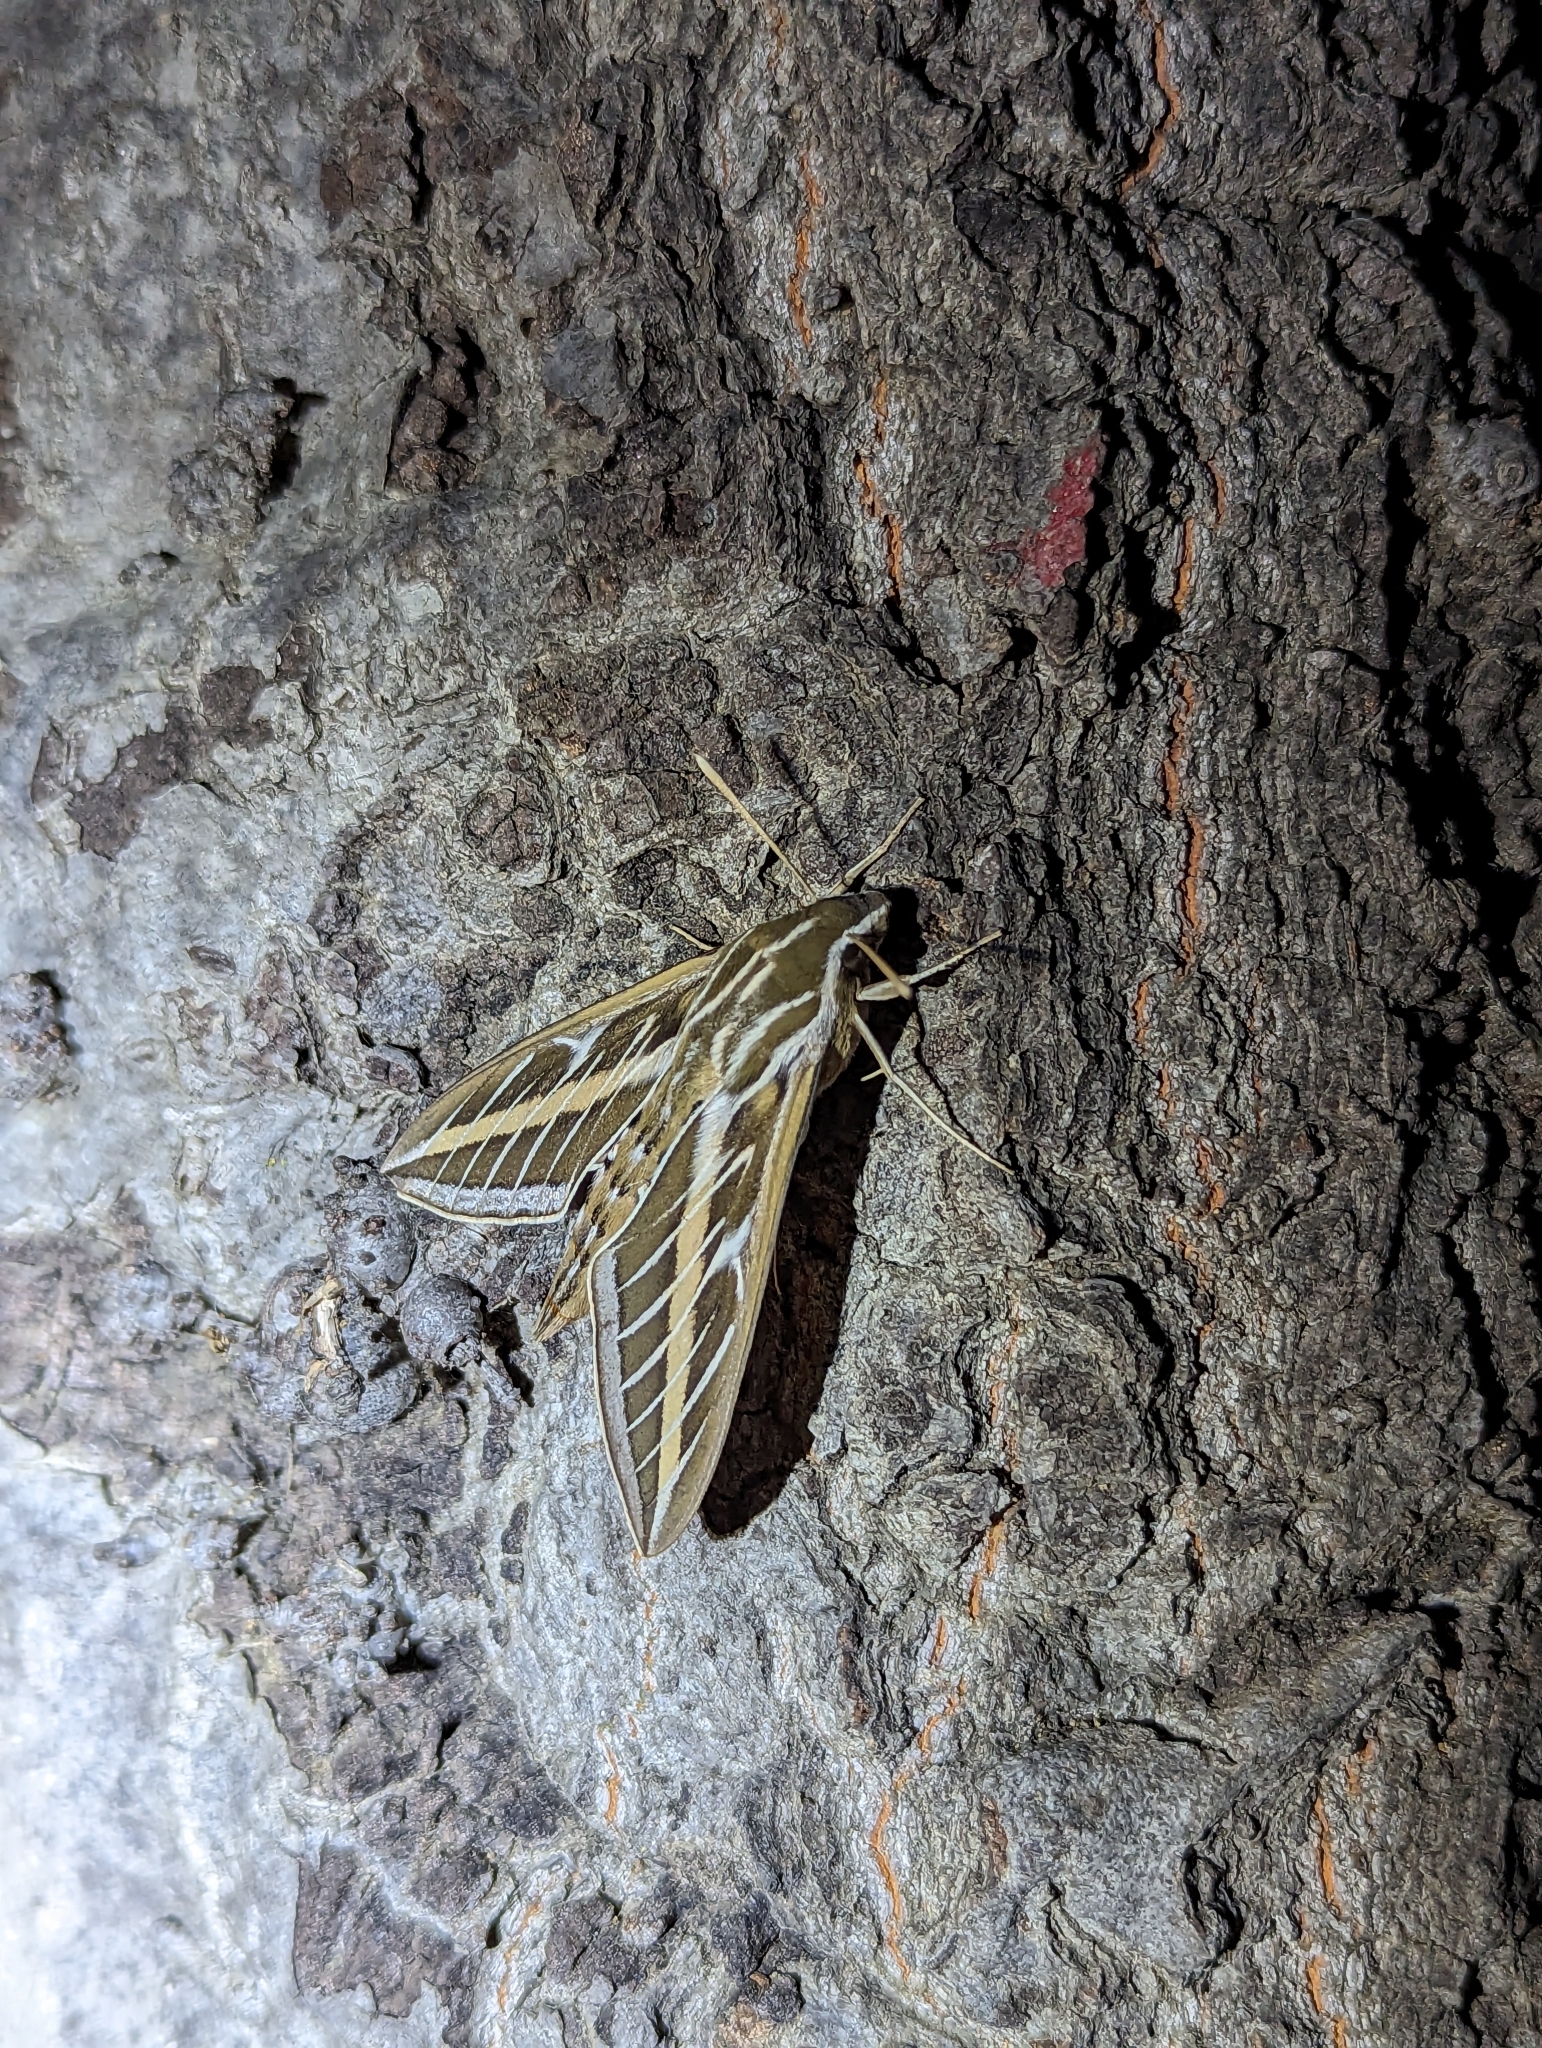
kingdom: Animalia
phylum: Arthropoda
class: Insecta
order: Lepidoptera
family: Sphingidae
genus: Hyles
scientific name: Hyles lineata
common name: White-lined sphinx
